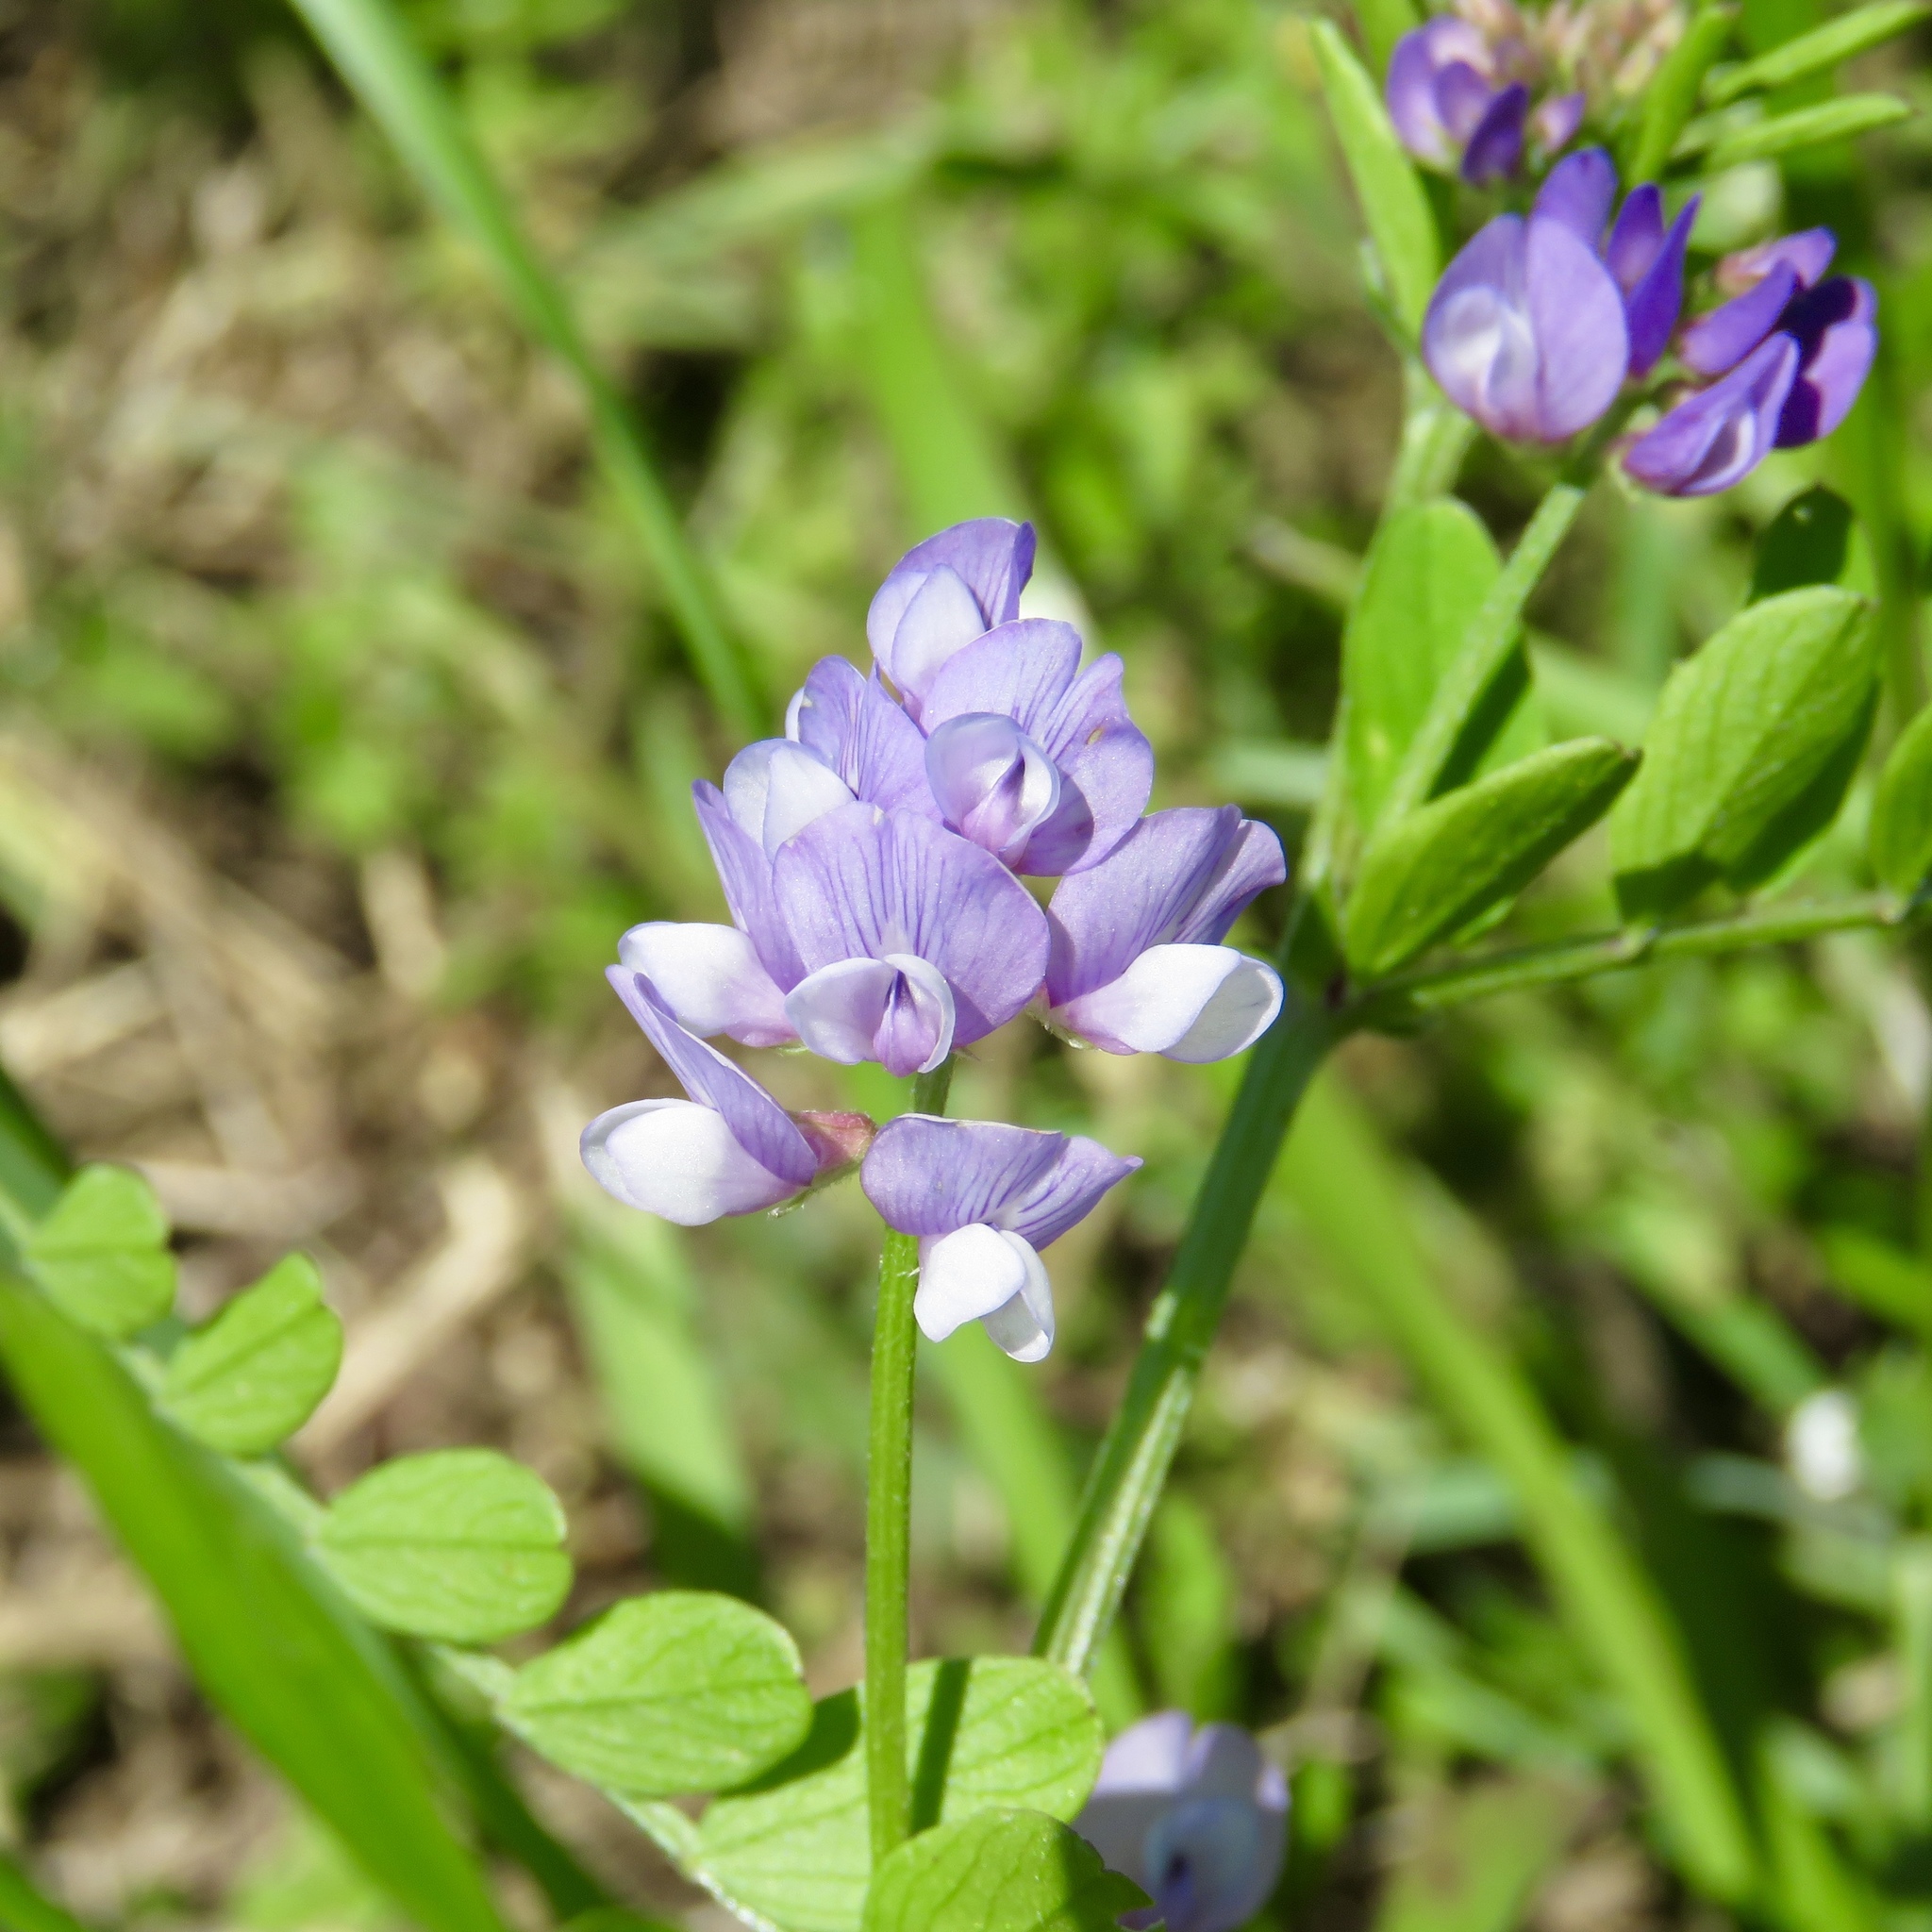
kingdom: Plantae
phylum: Tracheophyta
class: Magnoliopsida
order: Fabales
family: Fabaceae
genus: Vicia
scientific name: Vicia ludoviciana
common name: Louisiana vetch
